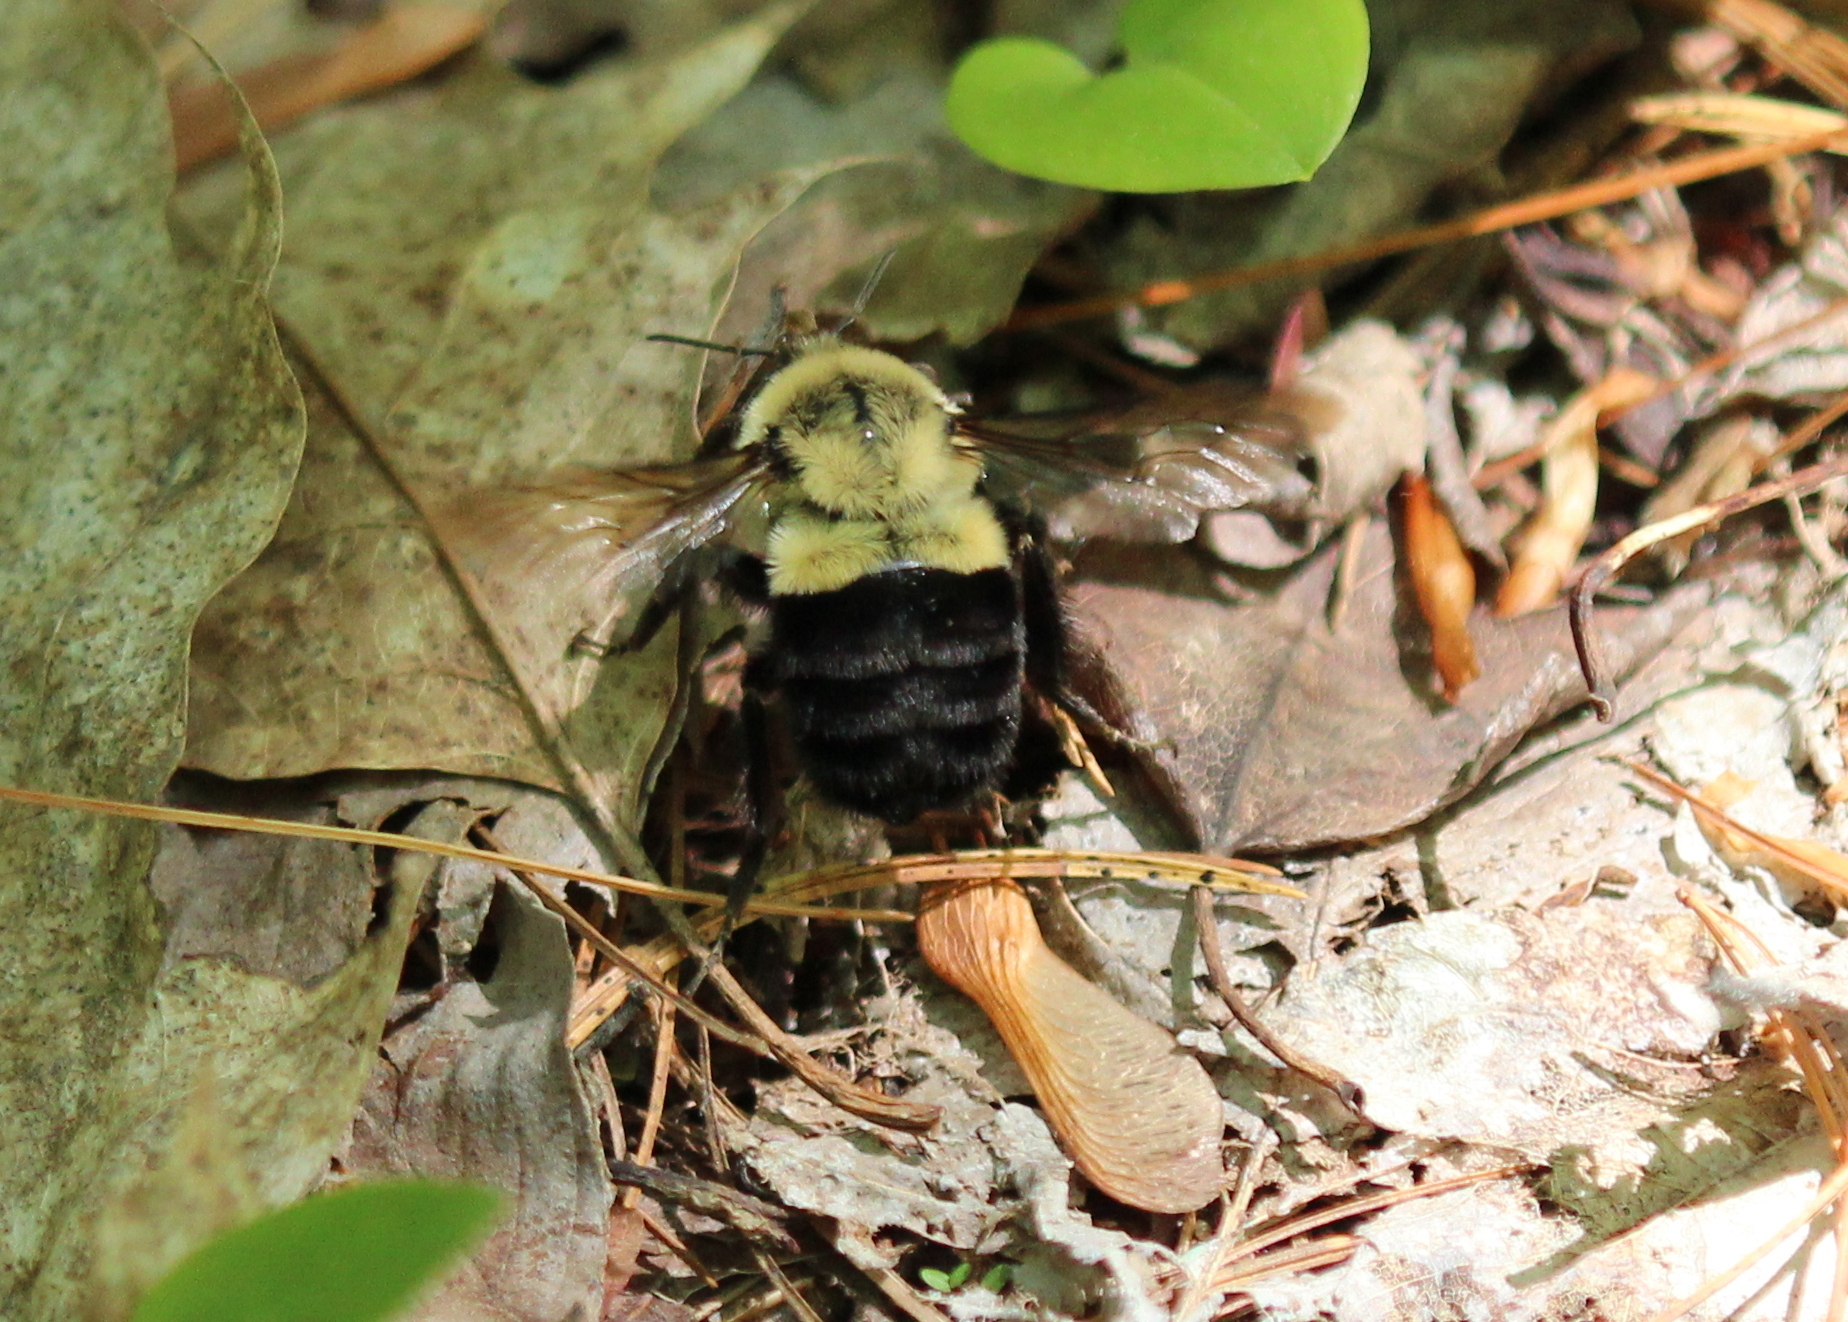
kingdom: Animalia
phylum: Arthropoda
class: Insecta
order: Hymenoptera
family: Apidae
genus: Bombus
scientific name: Bombus impatiens
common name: Common eastern bumble bee
